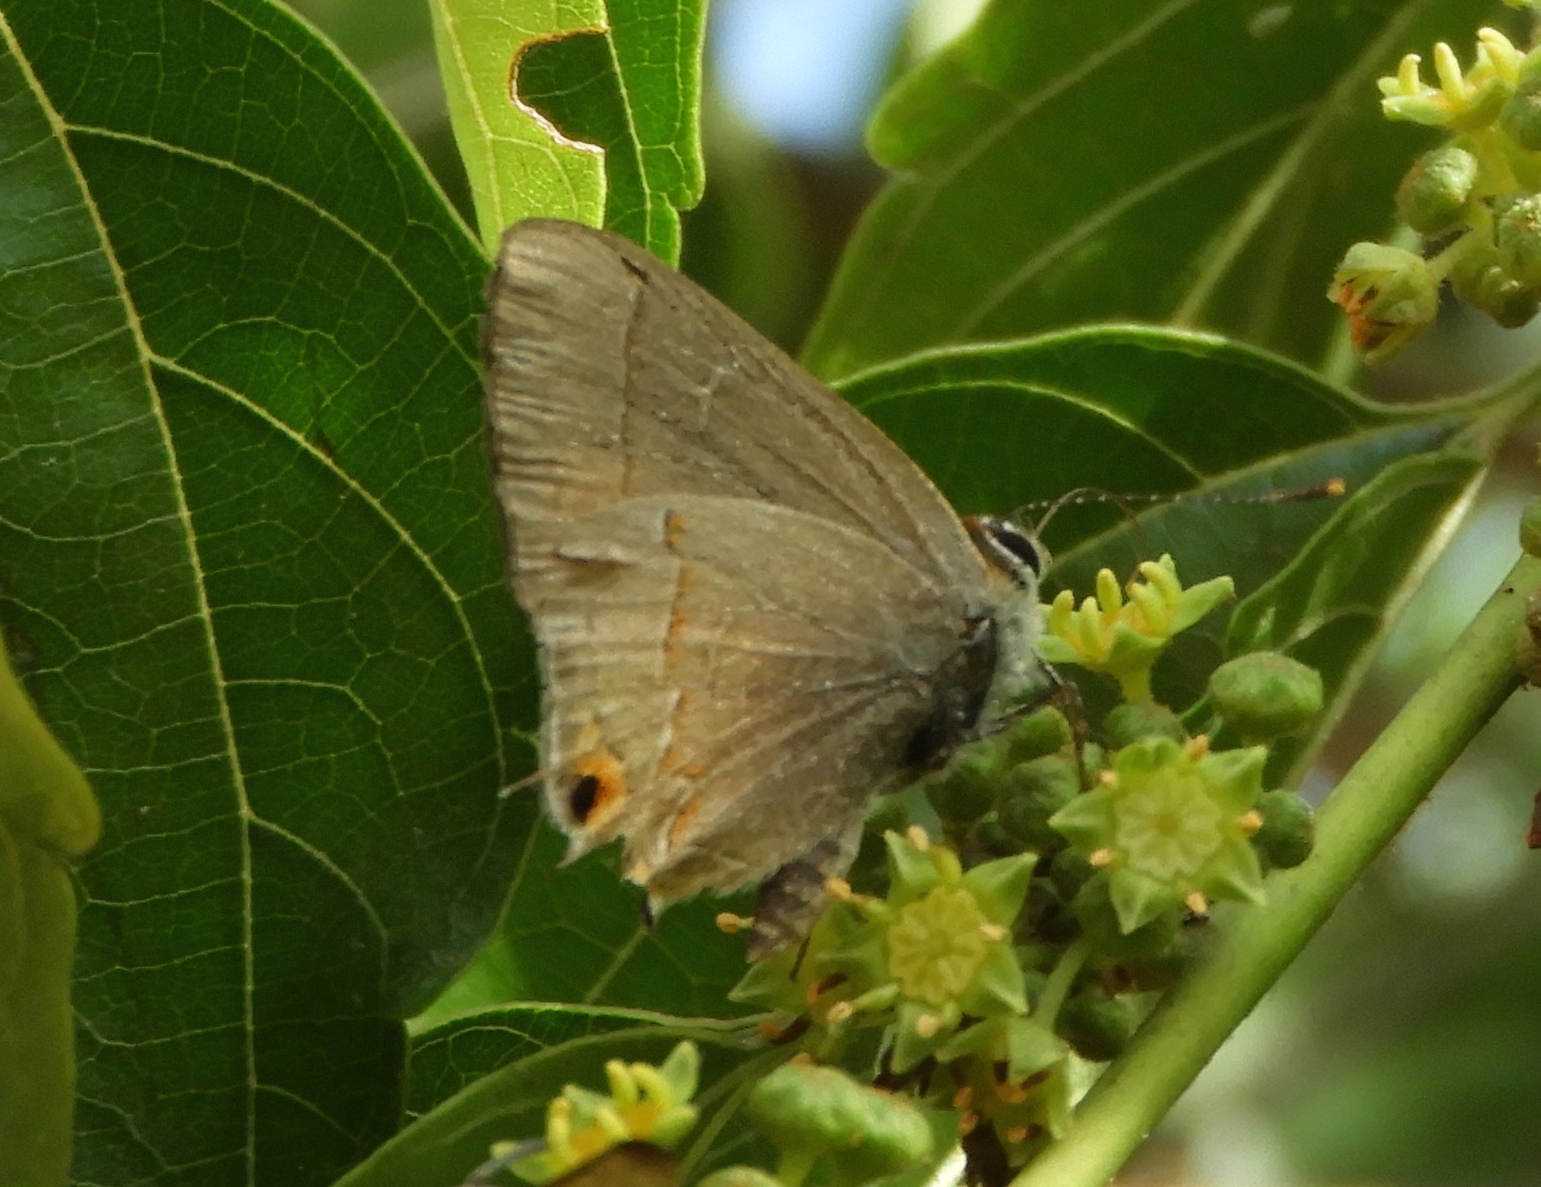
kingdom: Animalia
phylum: Arthropoda
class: Insecta
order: Lepidoptera
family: Lycaenidae
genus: Electrostrymon
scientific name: Electrostrymon endymion
